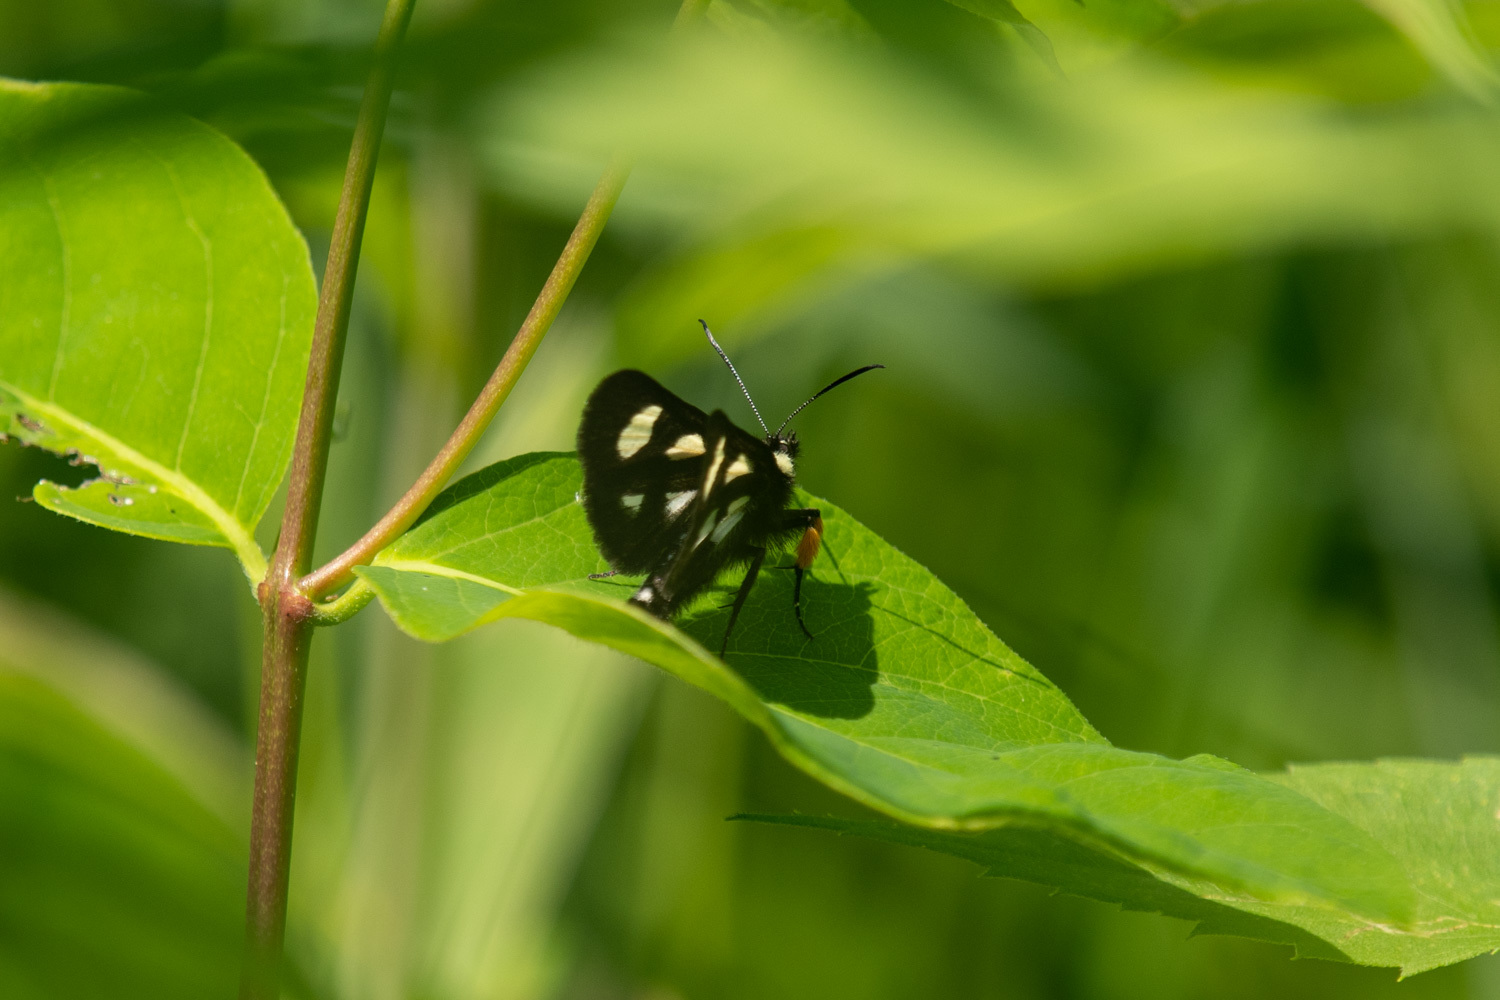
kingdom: Animalia
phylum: Arthropoda
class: Insecta
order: Lepidoptera
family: Noctuidae
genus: Alypia
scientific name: Alypia langtonii
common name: Fireweed caterpillar
